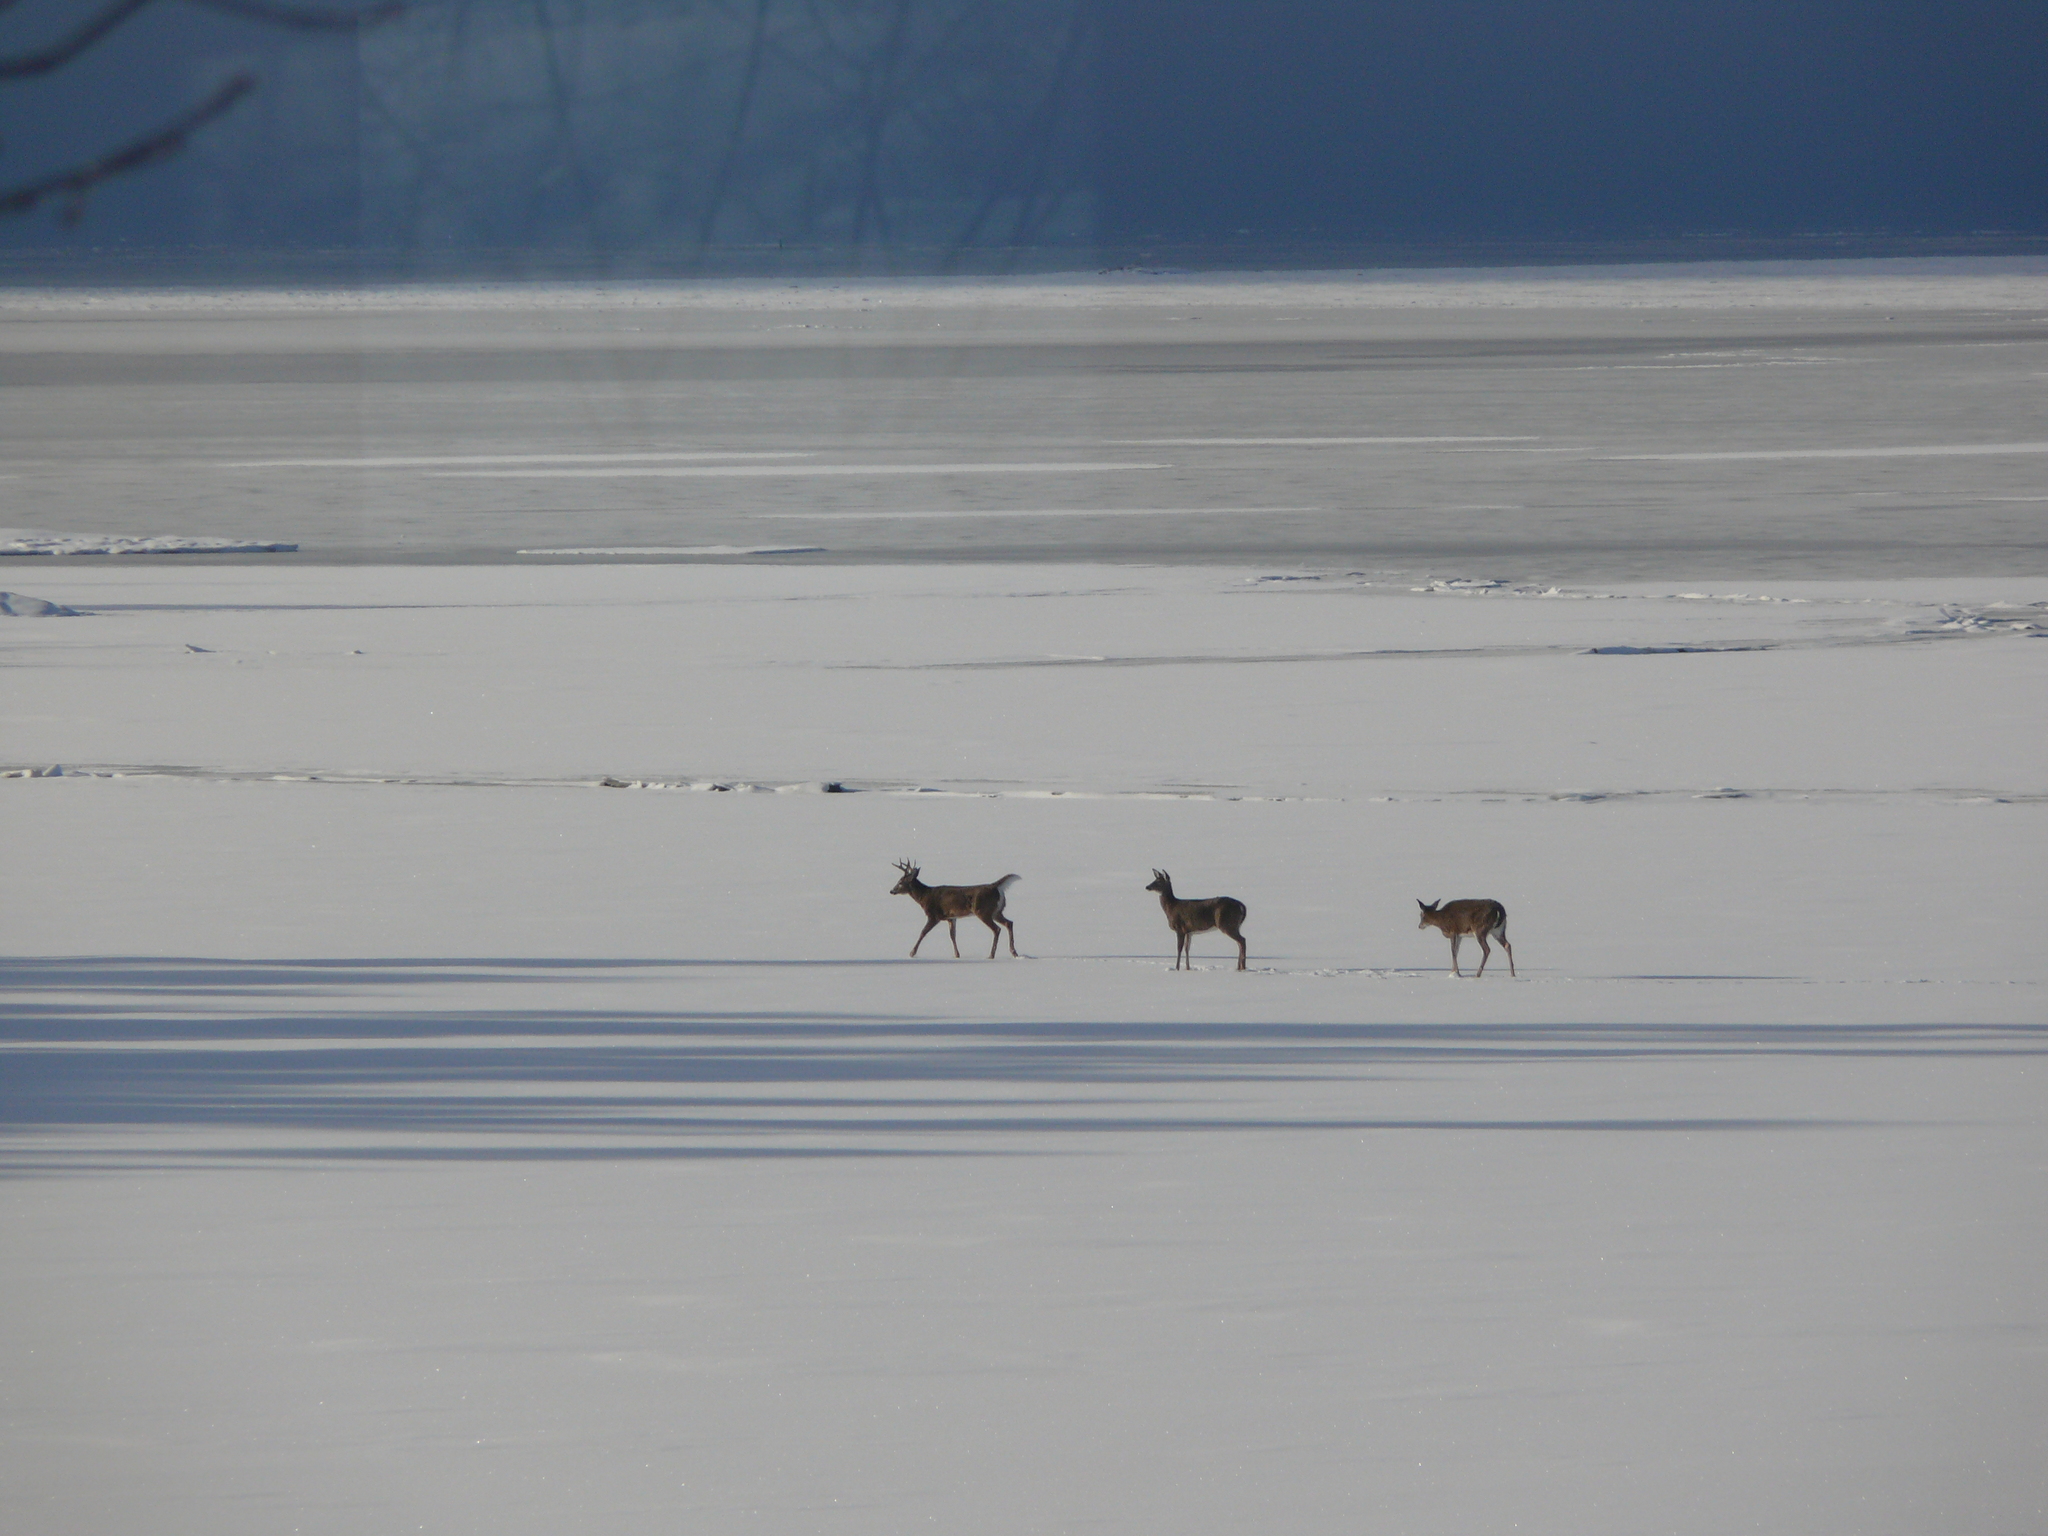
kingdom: Animalia
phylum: Chordata
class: Mammalia
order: Artiodactyla
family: Cervidae
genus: Odocoileus
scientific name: Odocoileus virginianus
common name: White-tailed deer
